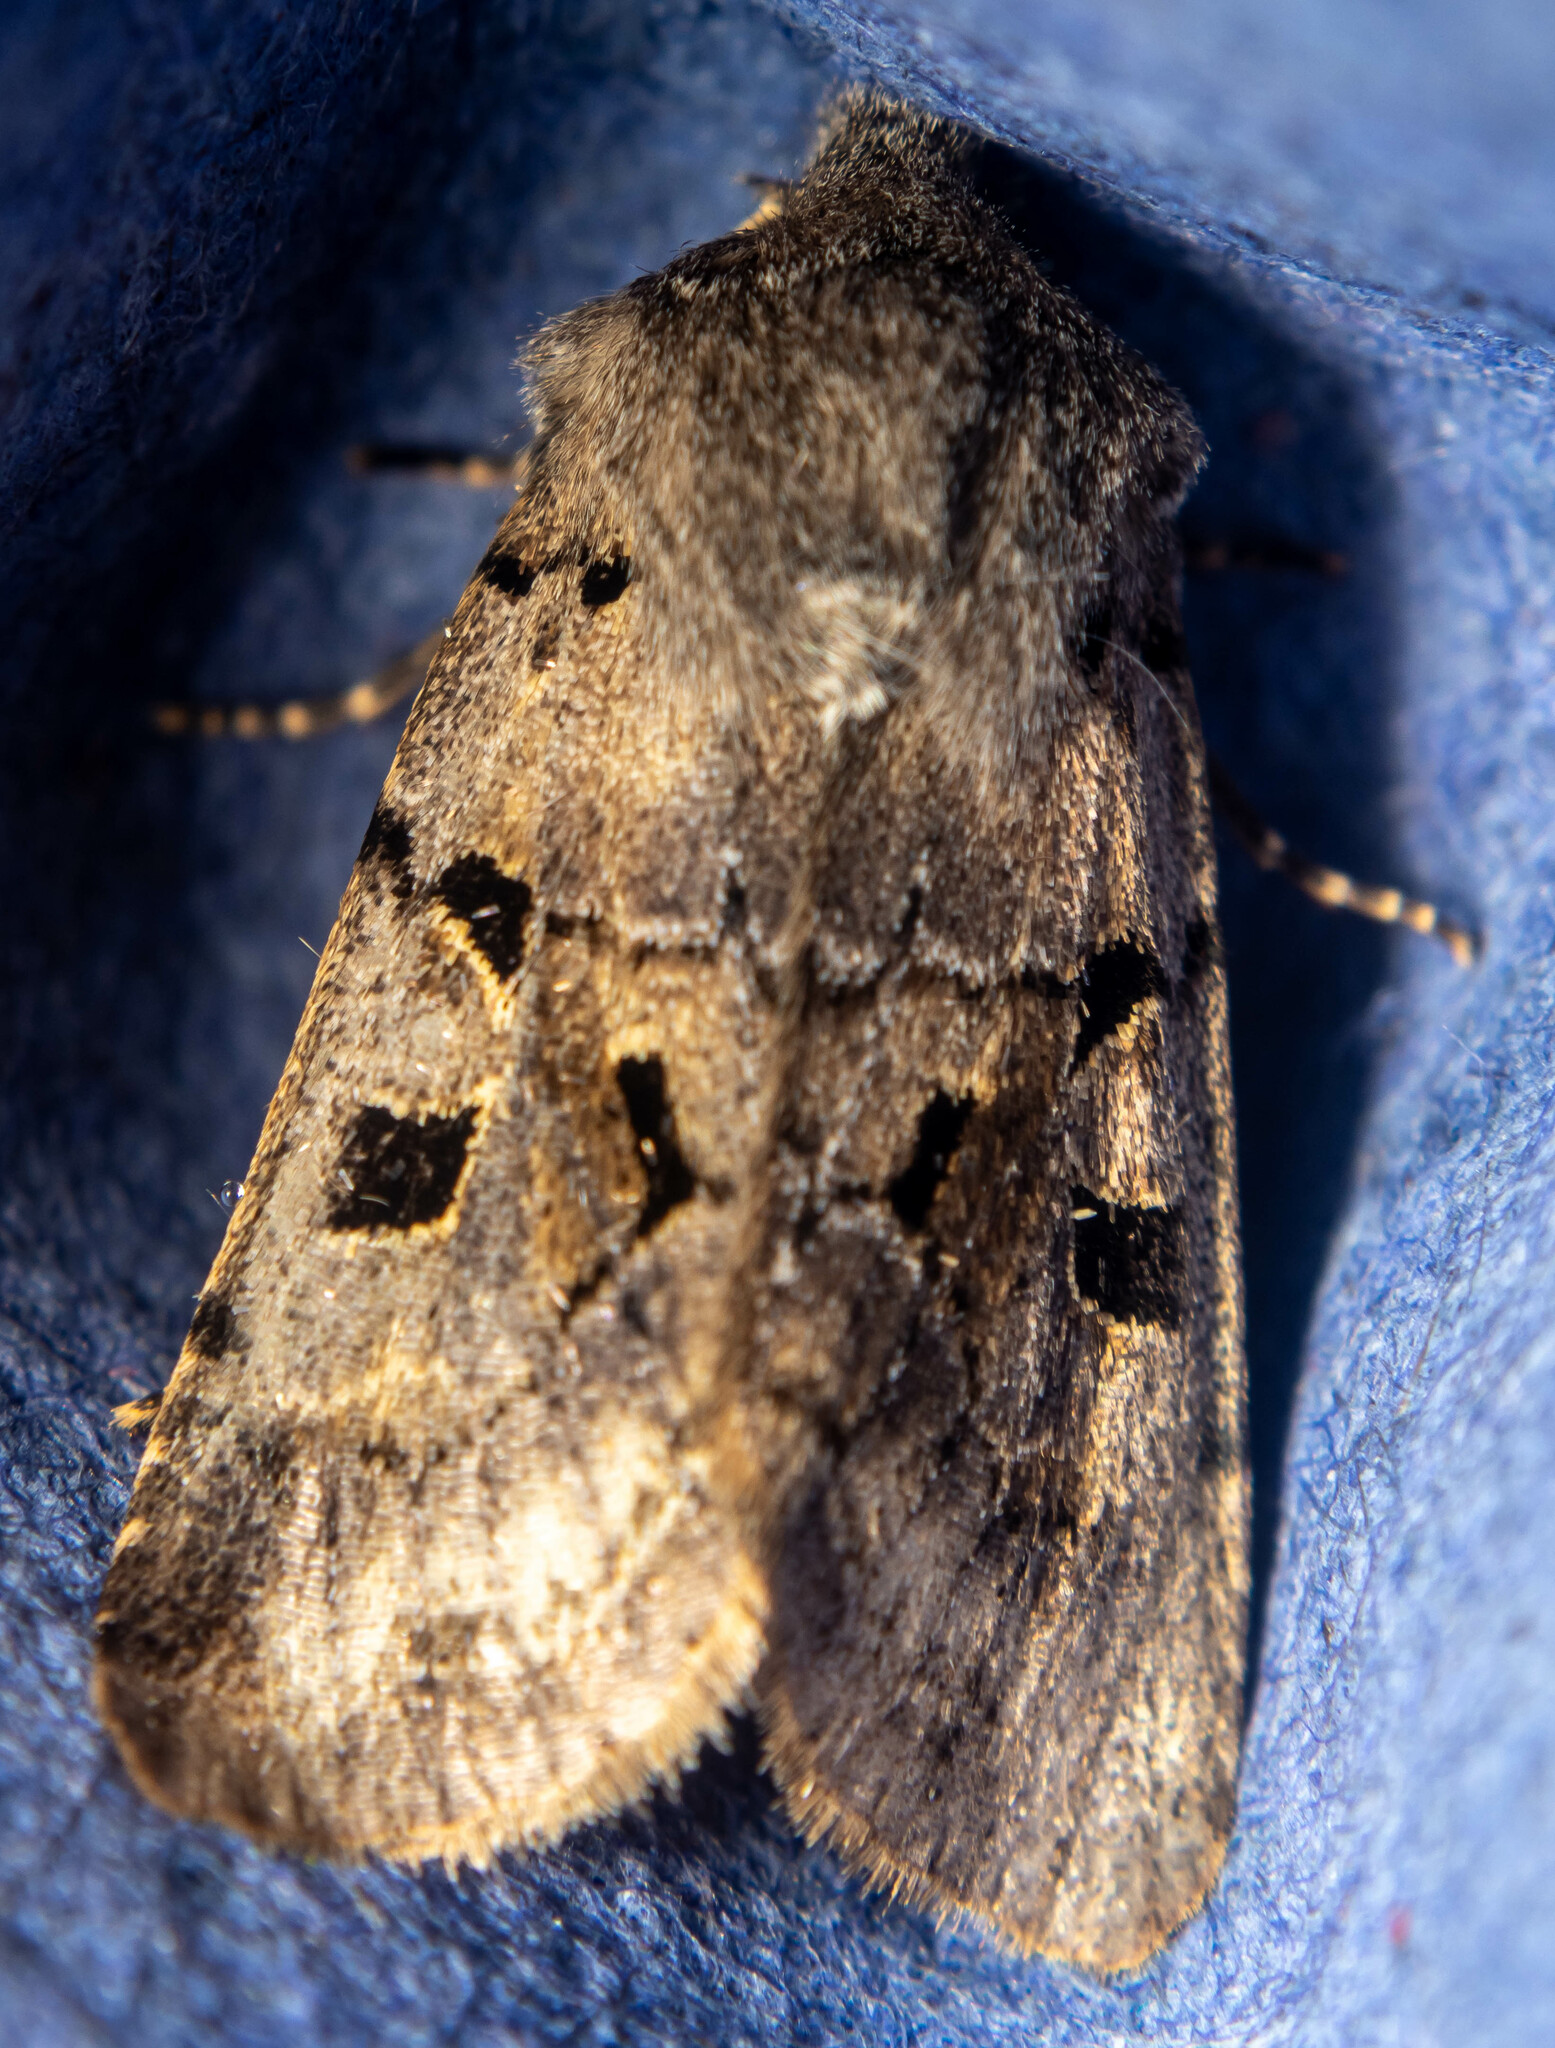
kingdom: Animalia
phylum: Arthropoda
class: Insecta
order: Lepidoptera
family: Noctuidae
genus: Orthosia
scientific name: Orthosia gothica
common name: Hebrew character
